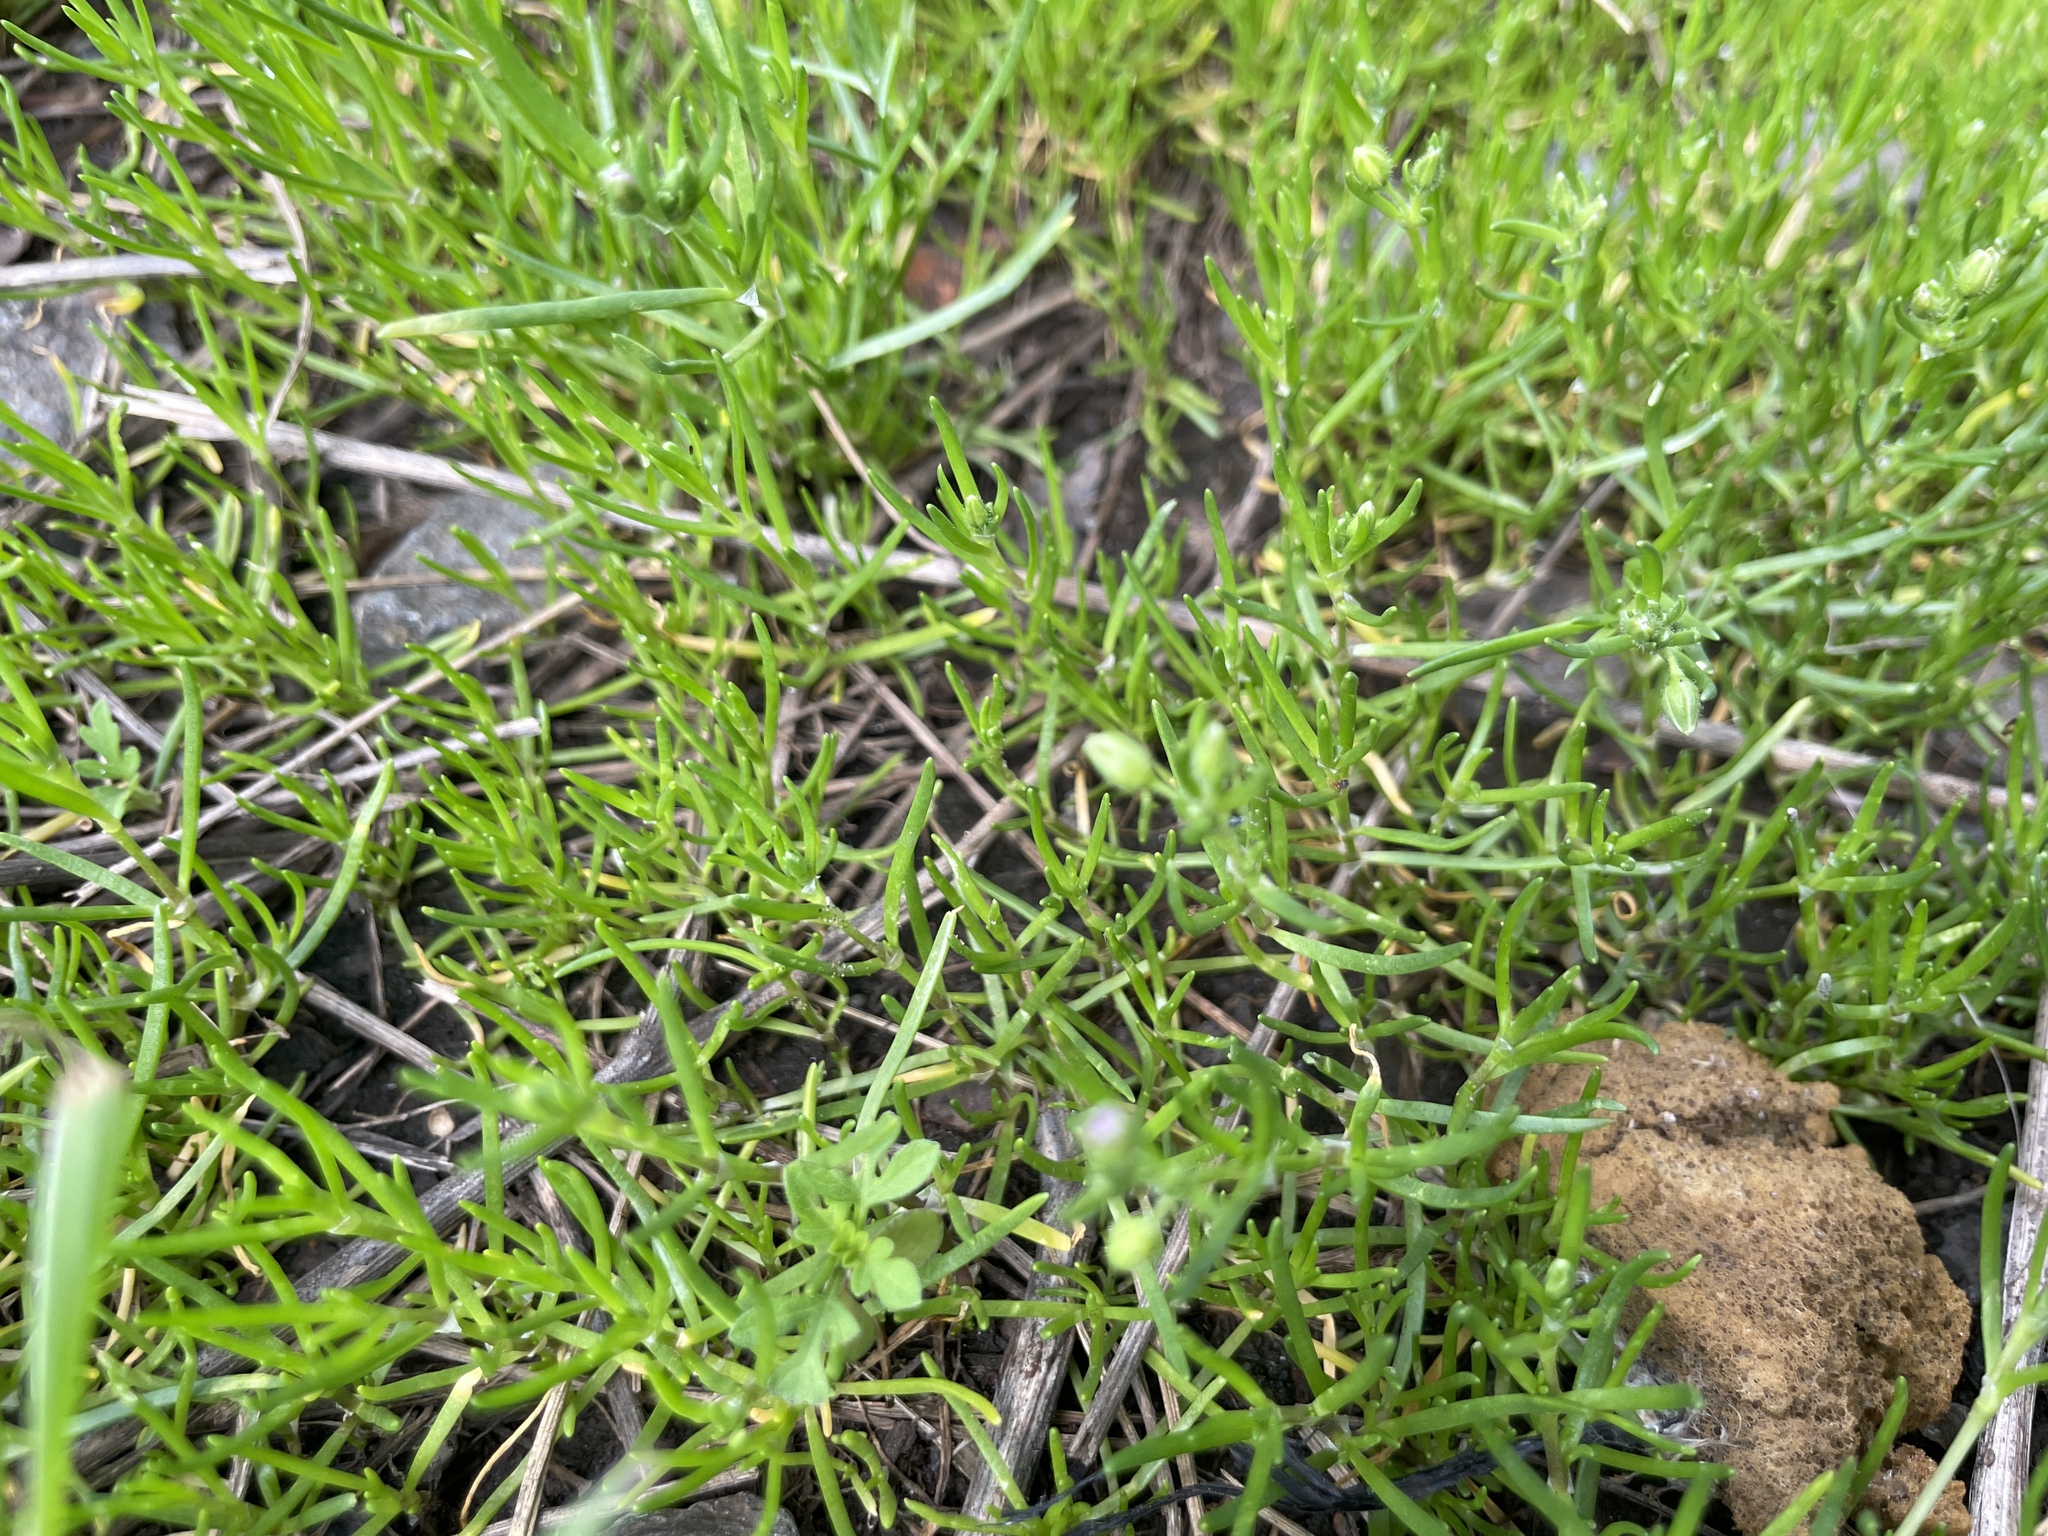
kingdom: Plantae
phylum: Tracheophyta
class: Magnoliopsida
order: Caryophyllales
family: Caryophyllaceae
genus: Spergularia
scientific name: Spergularia marina
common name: Lesser sea-spurrey
